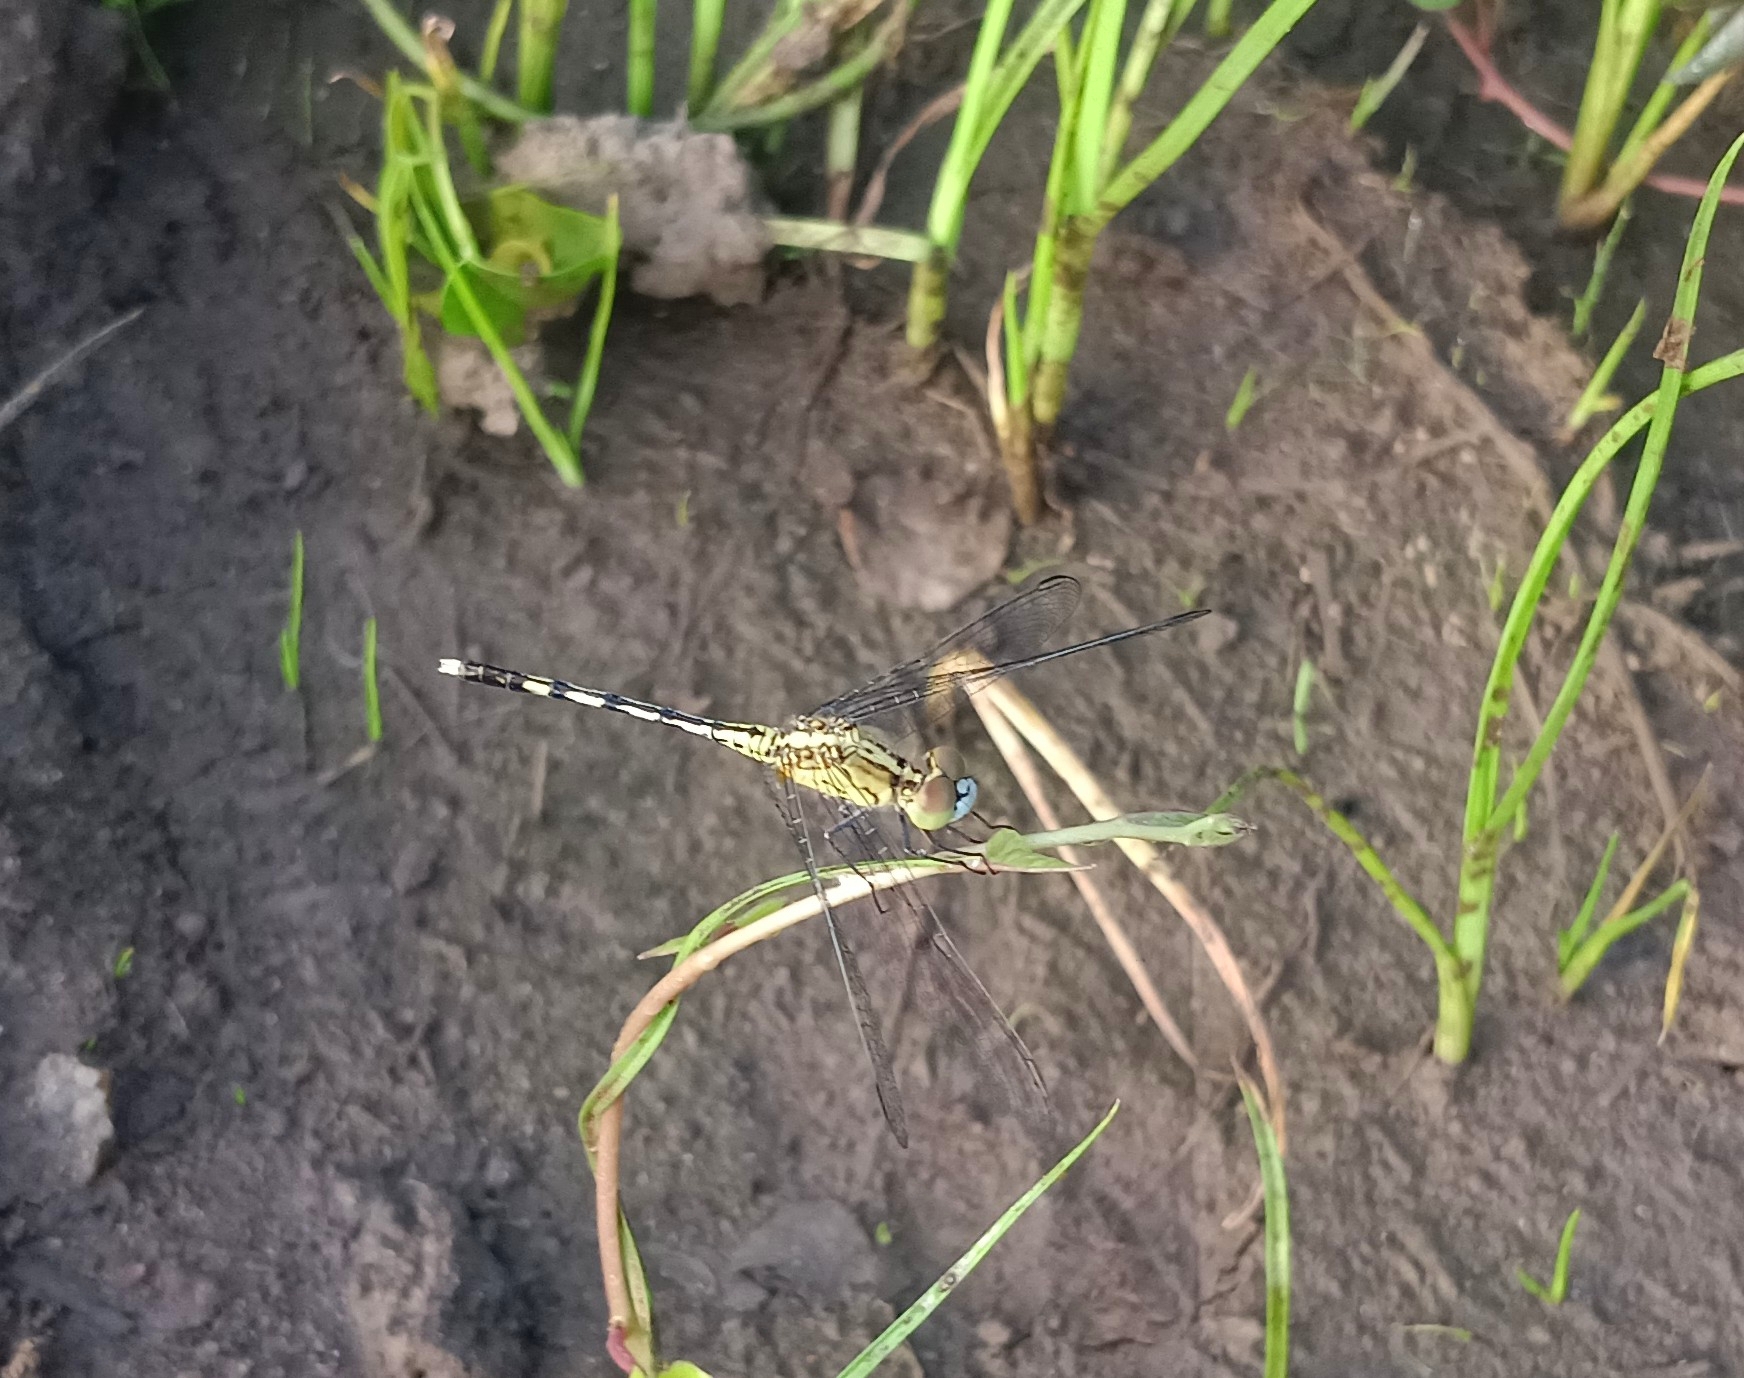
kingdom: Animalia
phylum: Arthropoda
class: Insecta
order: Odonata
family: Libellulidae
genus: Diplacodes
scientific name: Diplacodes trivialis
